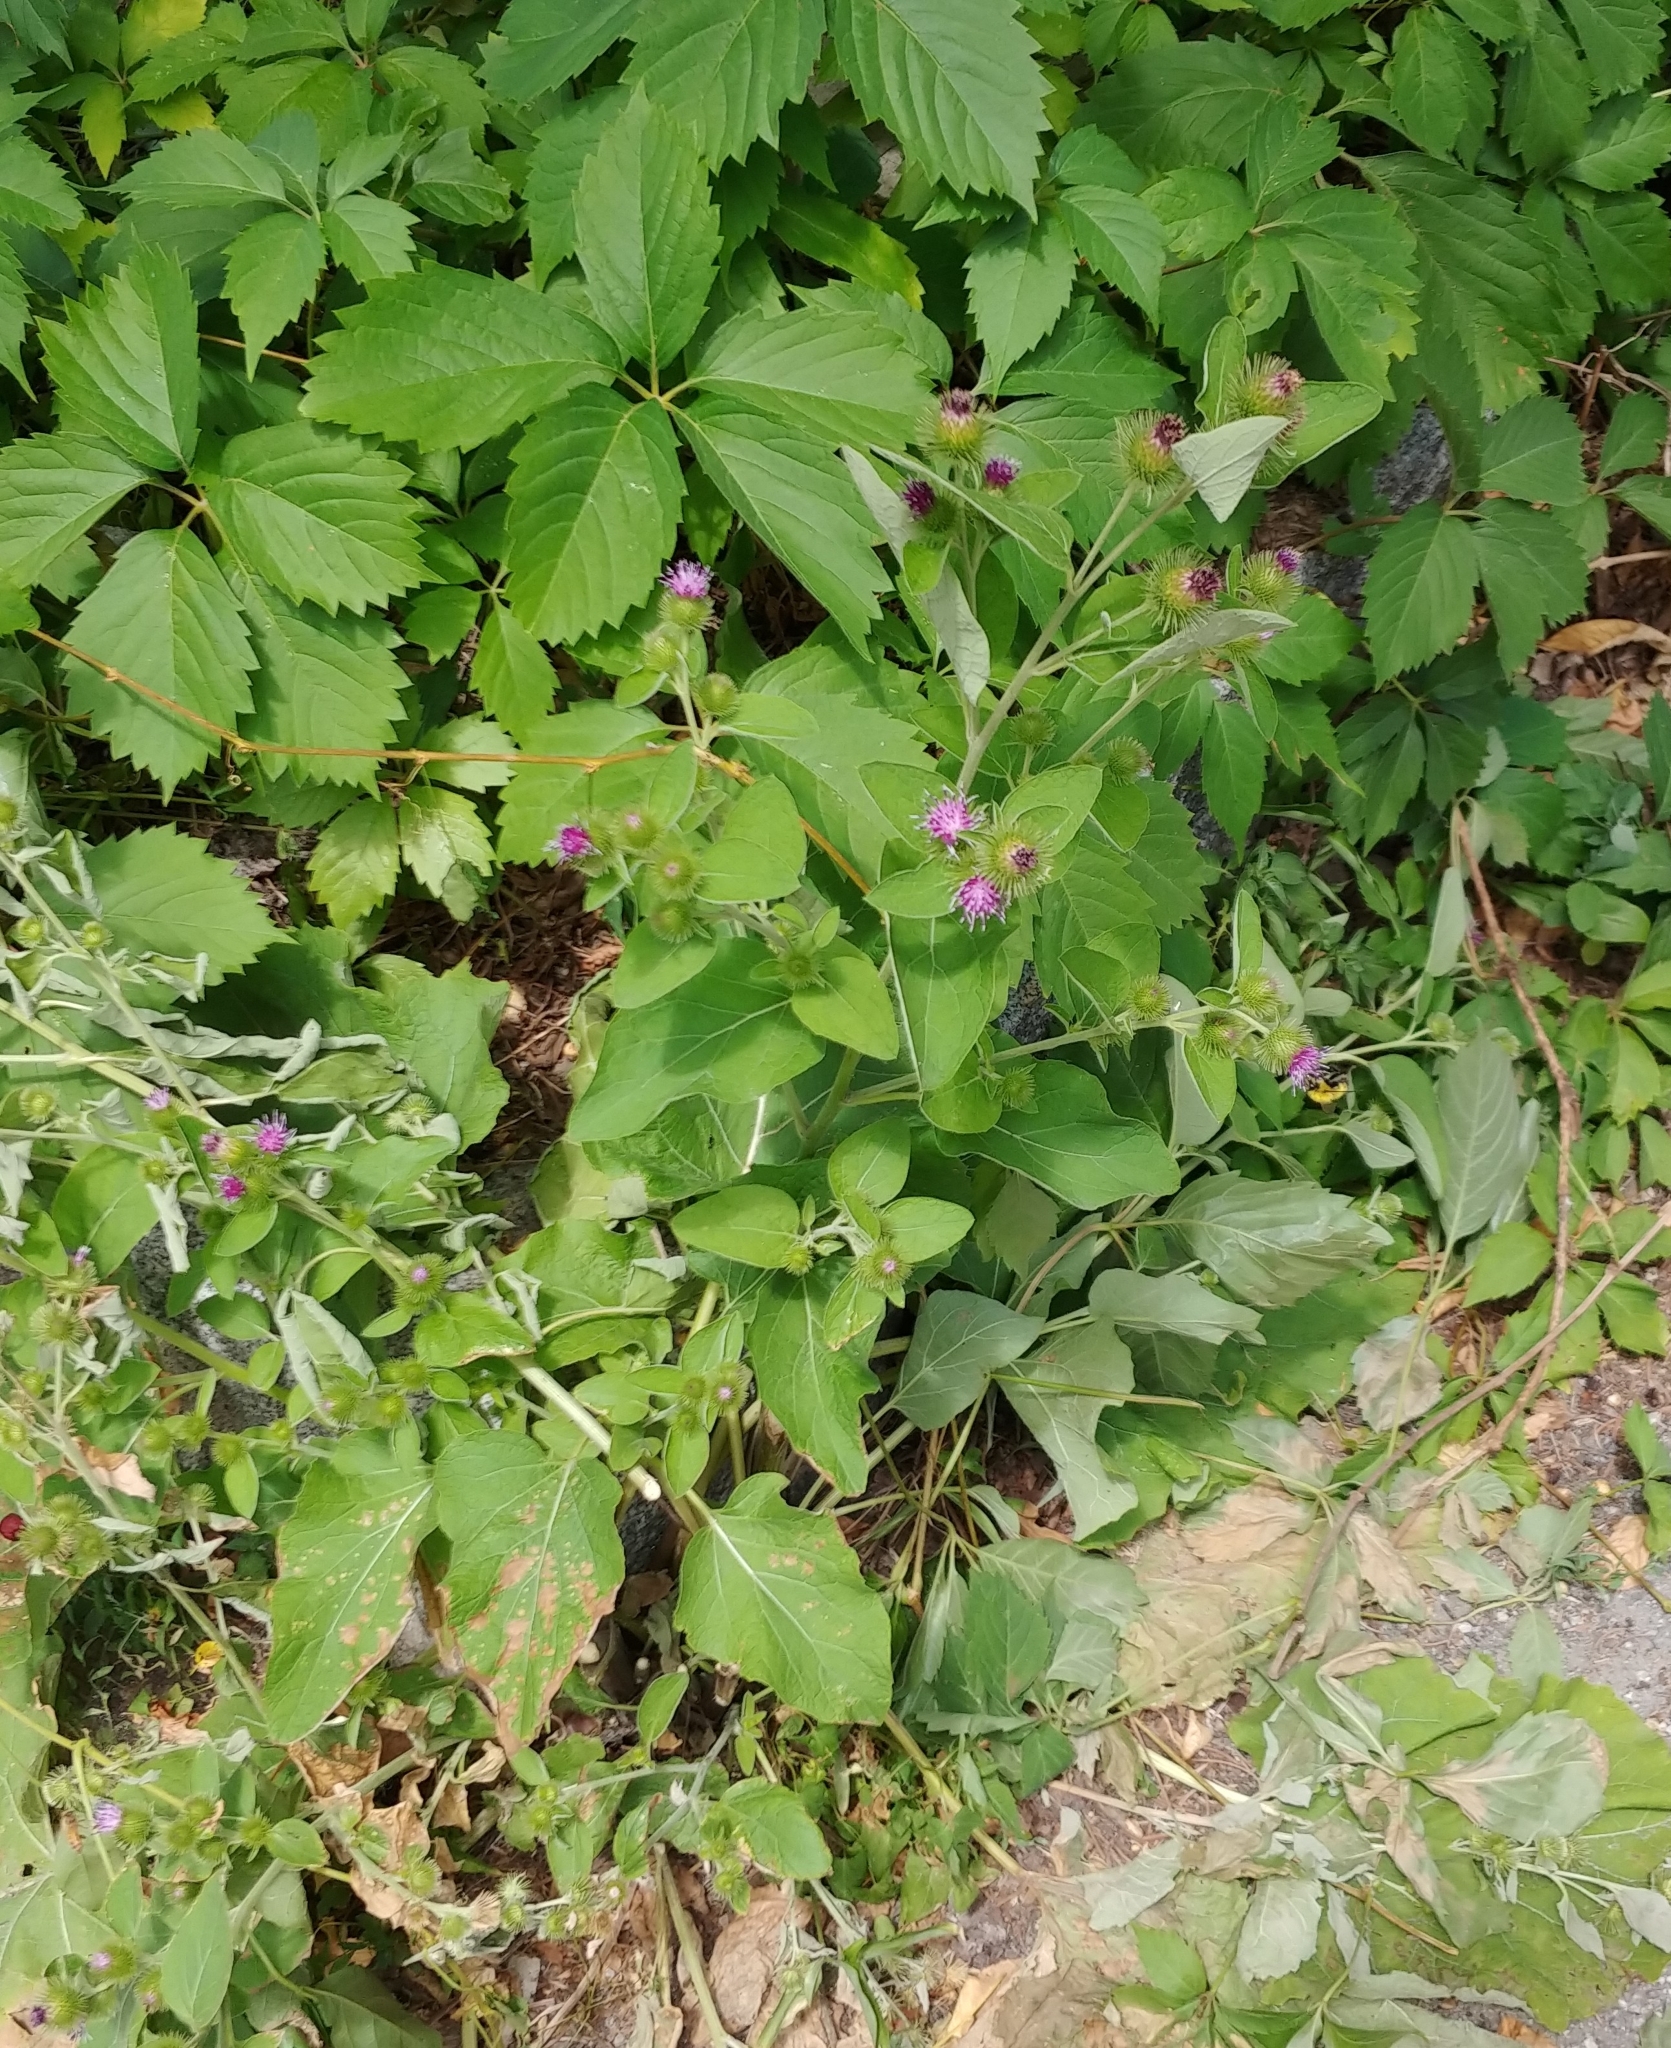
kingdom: Plantae
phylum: Tracheophyta
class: Magnoliopsida
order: Asterales
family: Asteraceae
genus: Arctium
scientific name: Arctium minus
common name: Lesser burdock
